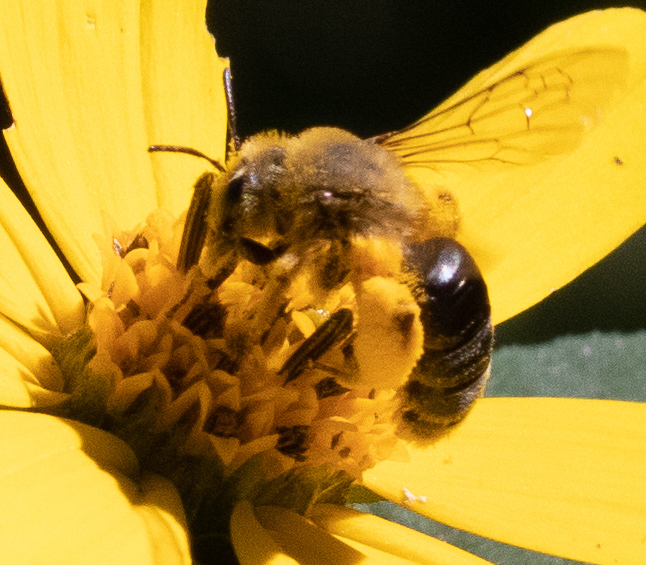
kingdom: Animalia
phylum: Arthropoda
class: Insecta
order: Hymenoptera
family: Andrenidae
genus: Andrena
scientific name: Andrena helianthi
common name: Sunflower mining bee
